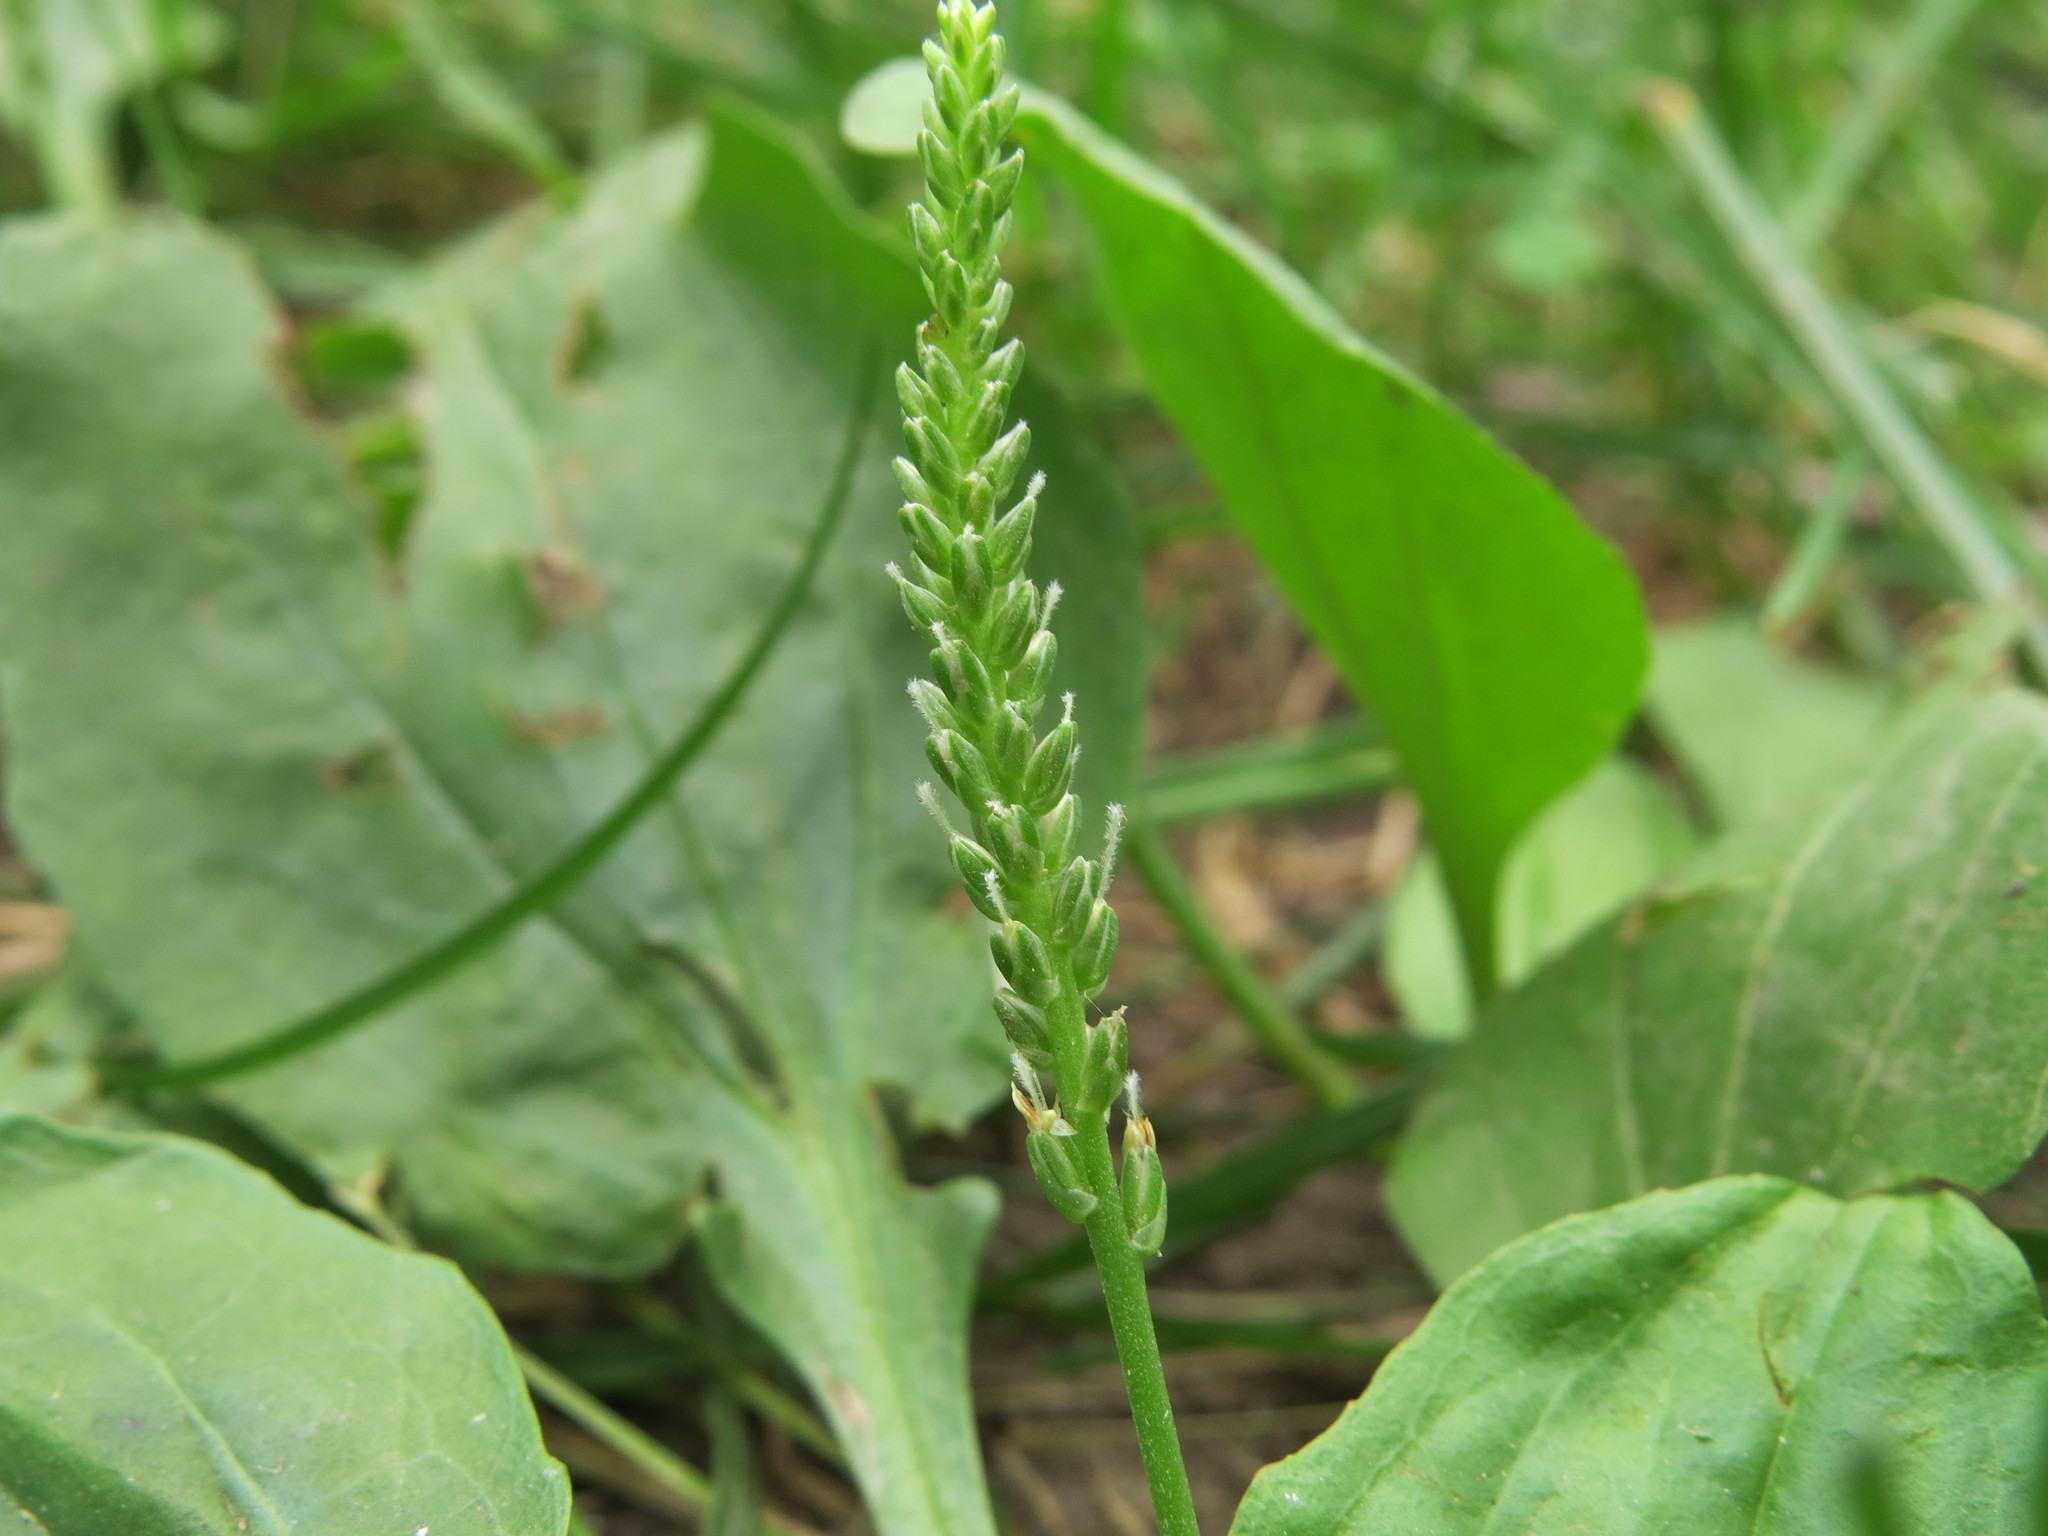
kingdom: Plantae
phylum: Tracheophyta
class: Magnoliopsida
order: Lamiales
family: Plantaginaceae
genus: Plantago
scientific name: Plantago major
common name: Common plantain
